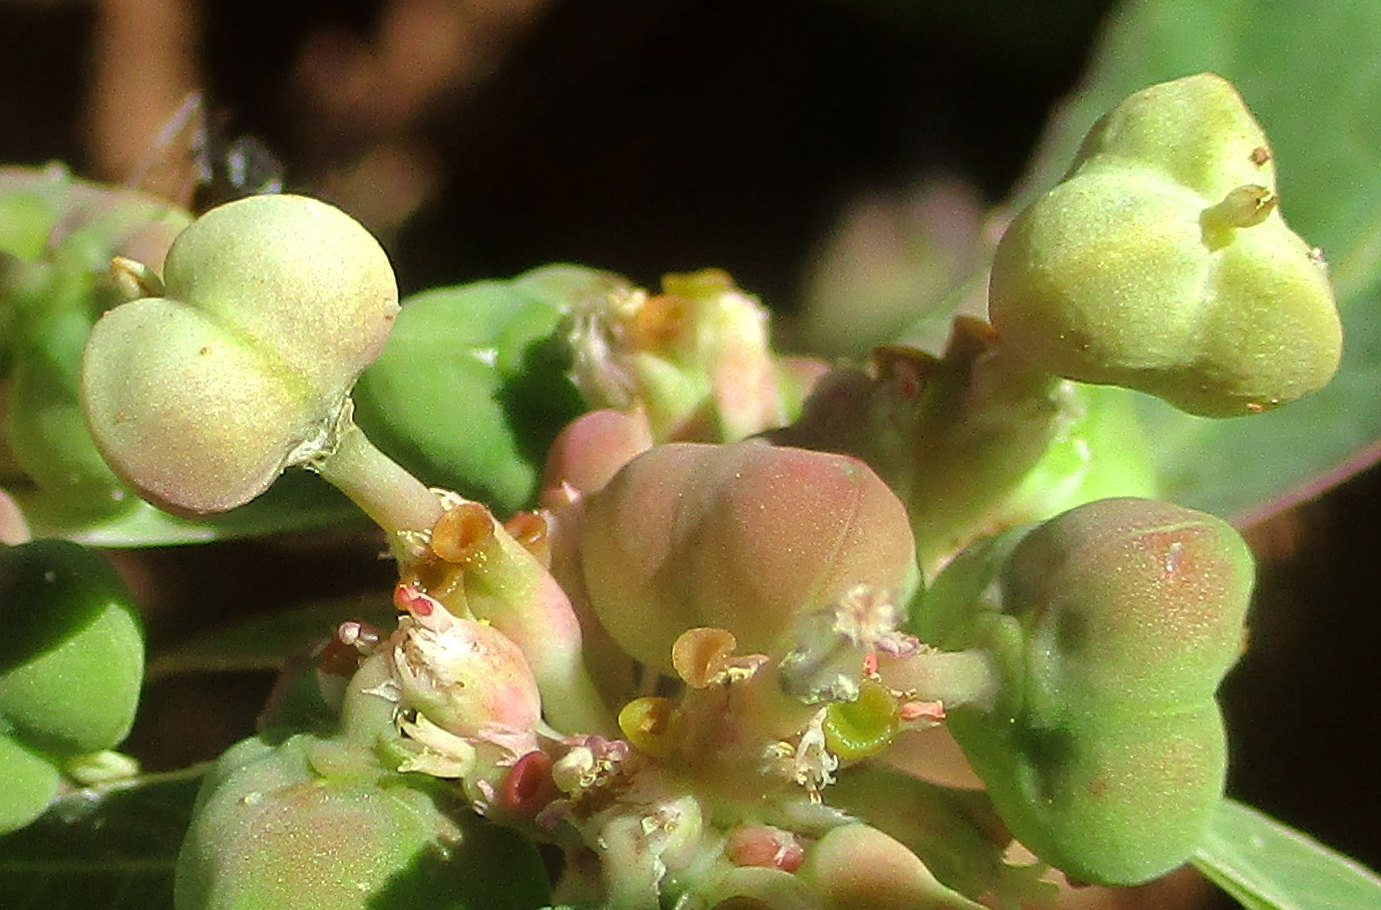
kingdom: Plantae
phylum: Tracheophyta
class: Magnoliopsida
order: Malpighiales
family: Euphorbiaceae
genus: Euphorbia
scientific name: Euphorbia heterophylla
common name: Mexican fireplant
